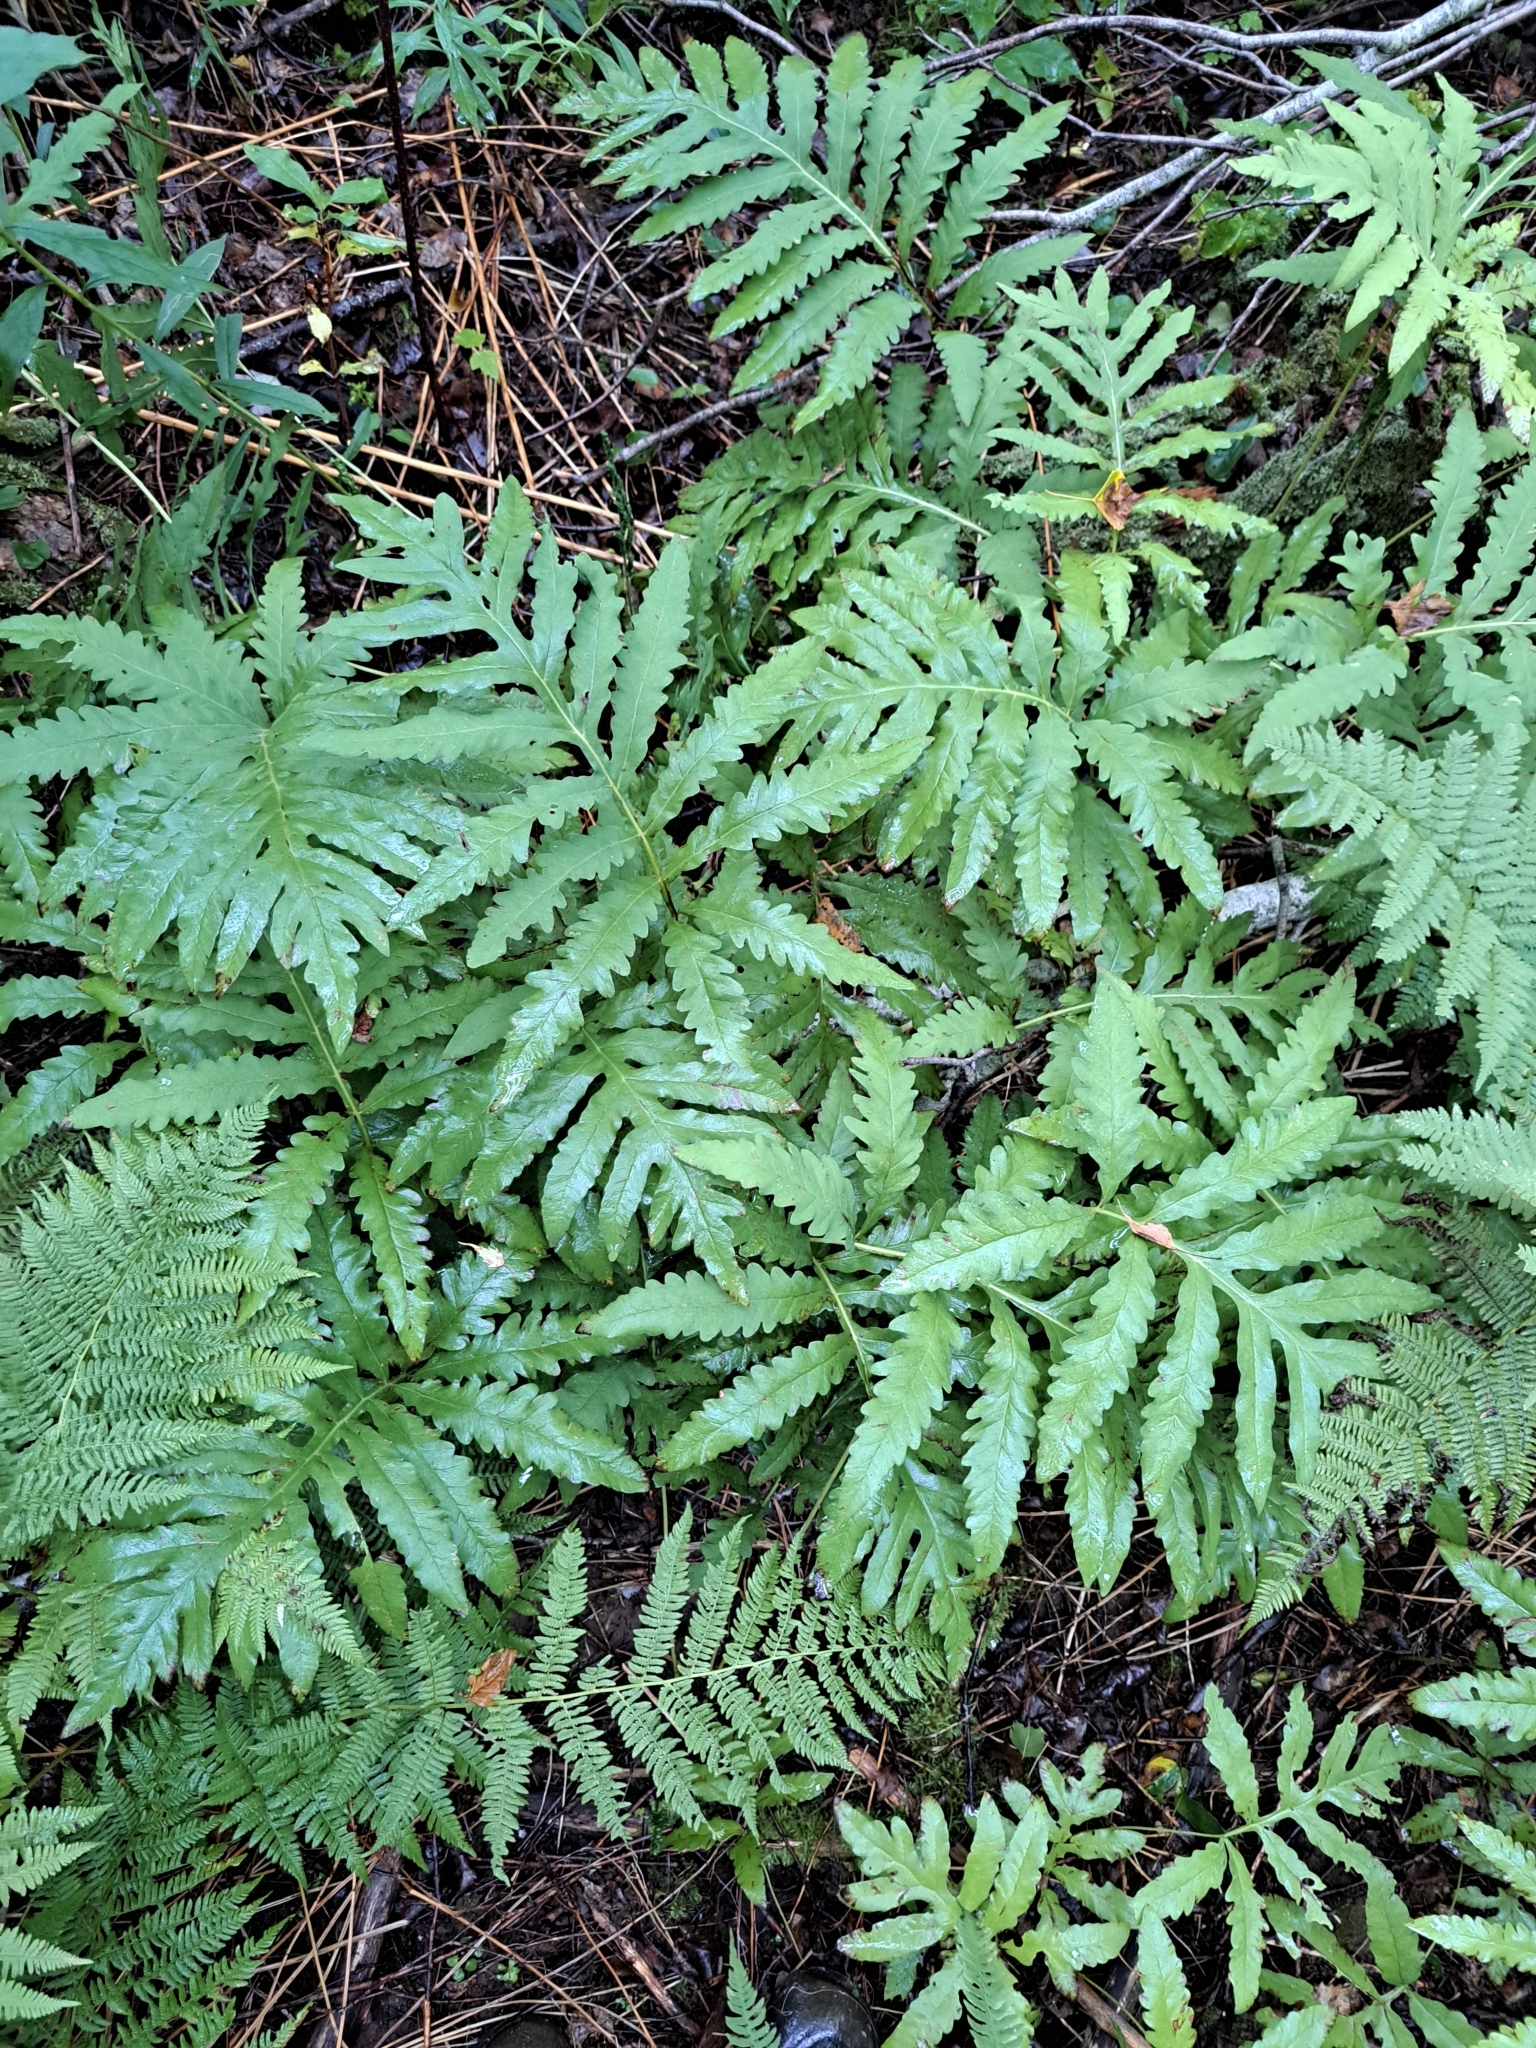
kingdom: Plantae
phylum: Tracheophyta
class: Polypodiopsida
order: Polypodiales
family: Onocleaceae
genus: Onoclea
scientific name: Onoclea sensibilis
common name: Sensitive fern
